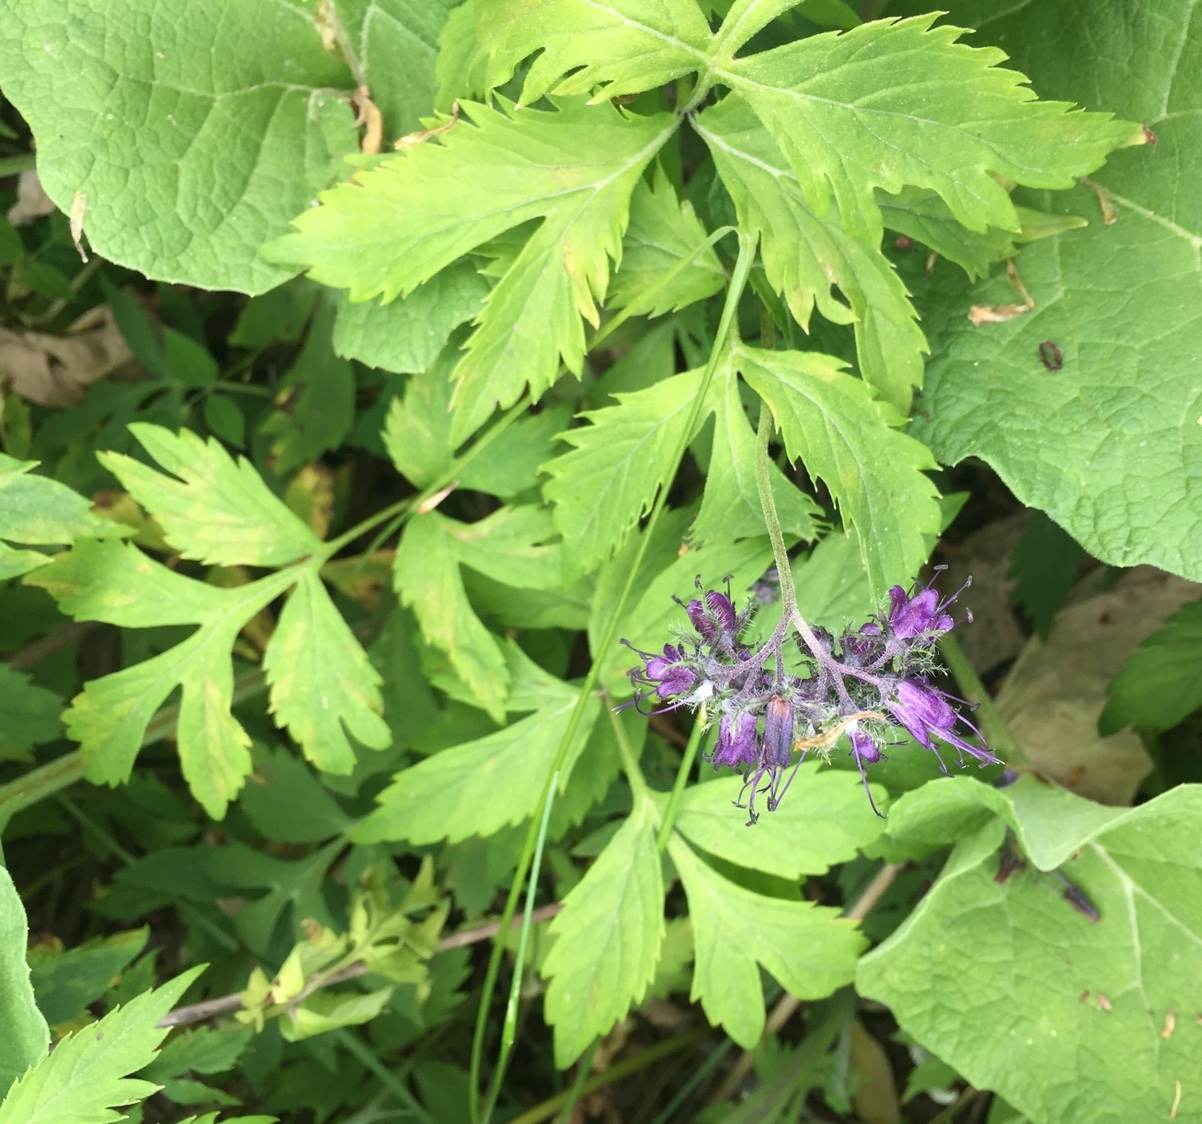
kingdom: Plantae
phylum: Tracheophyta
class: Magnoliopsida
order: Boraginales
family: Hydrophyllaceae
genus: Hydrophyllum
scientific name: Hydrophyllum virginianum
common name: Virginia waterleaf
